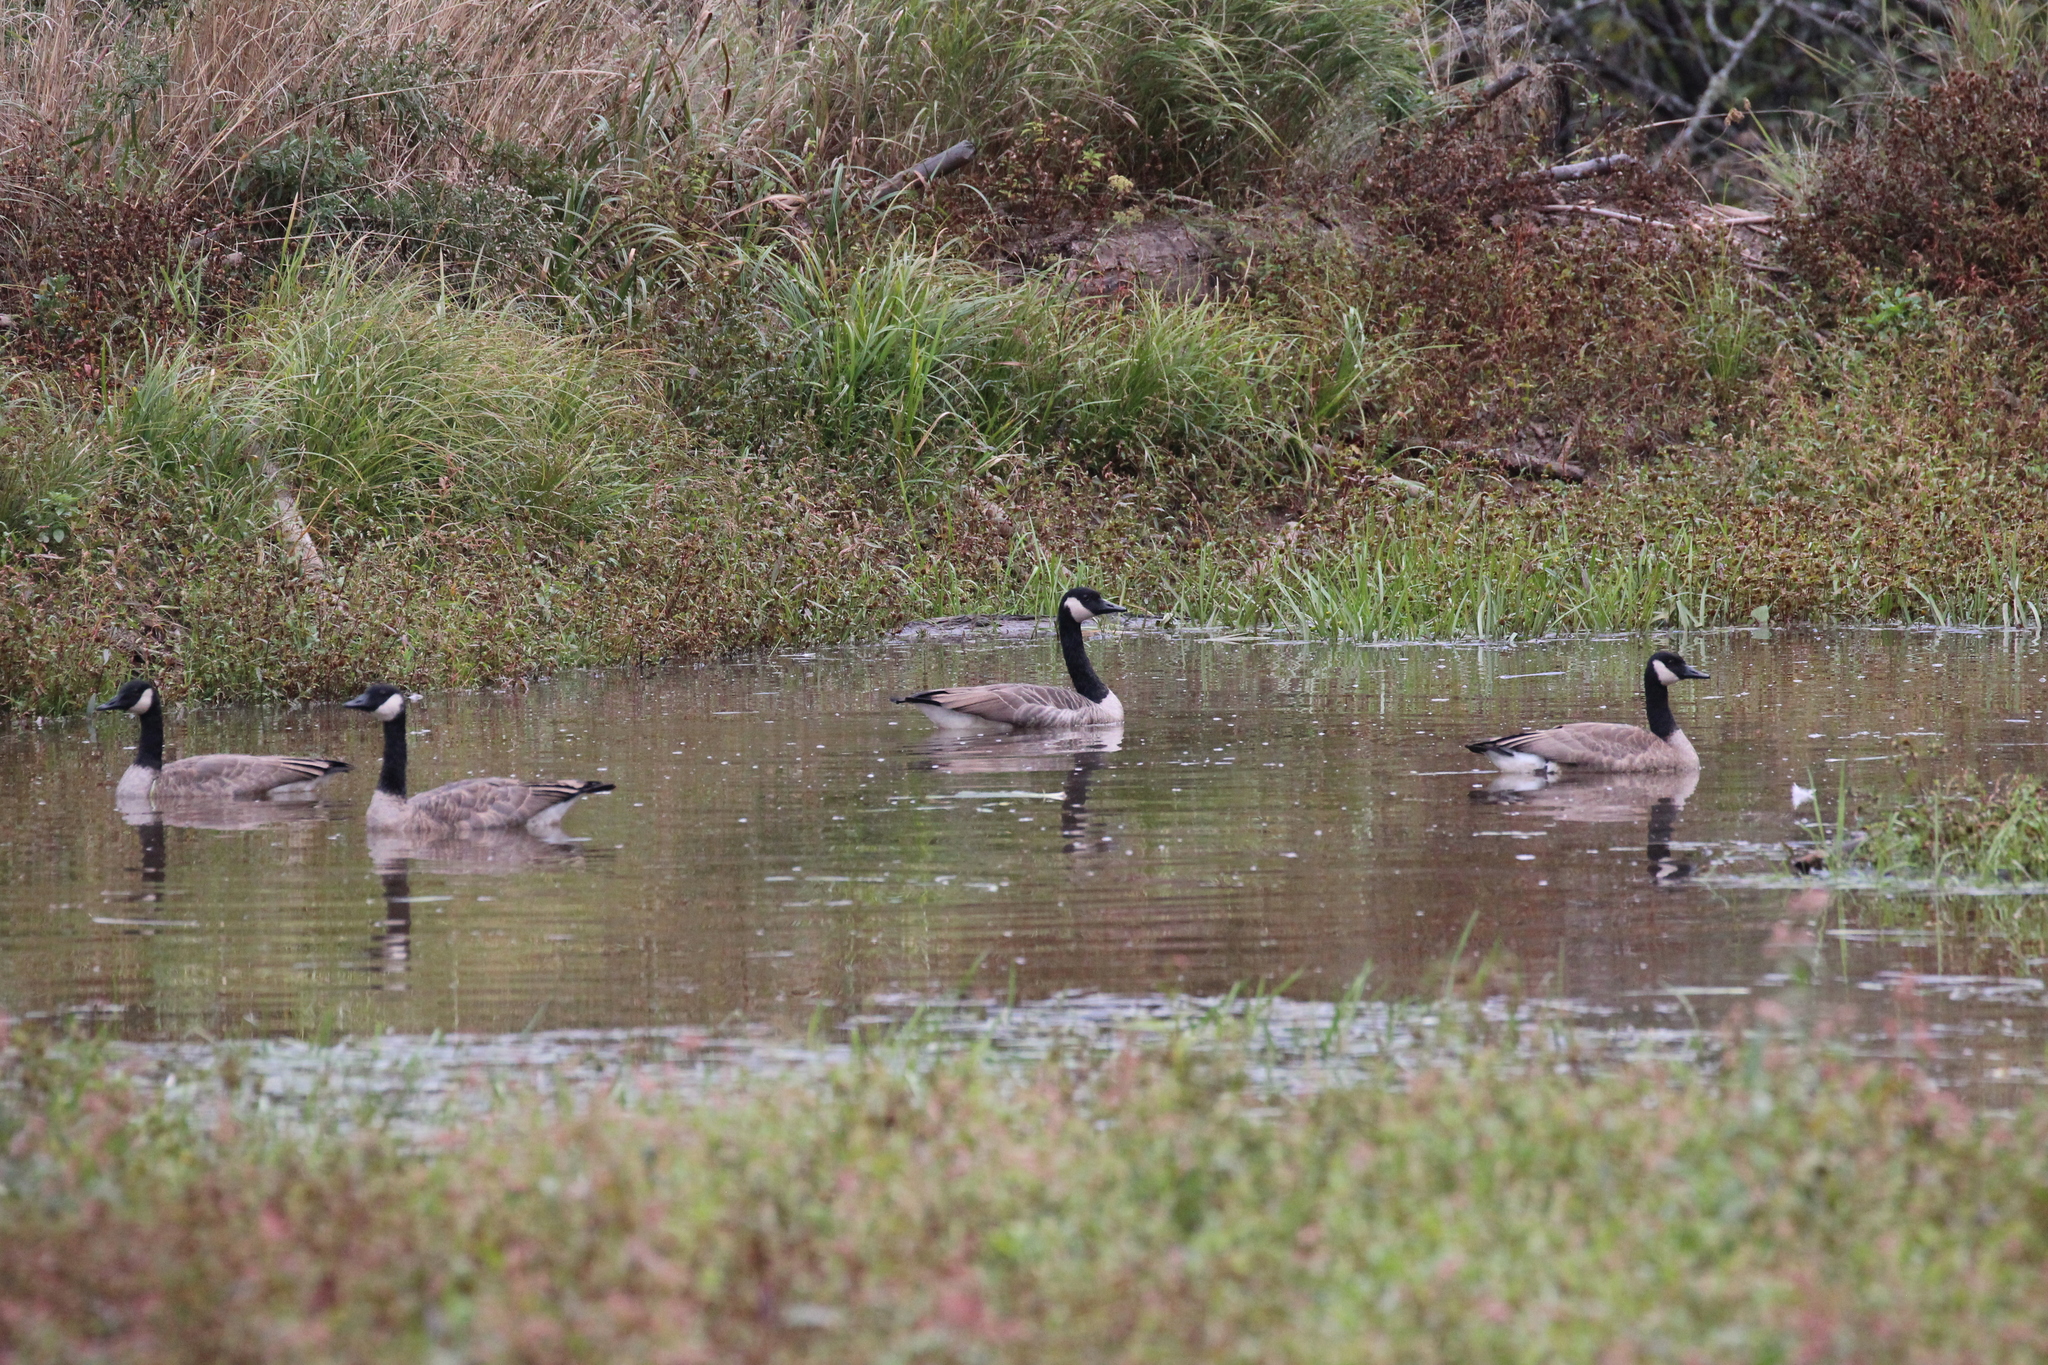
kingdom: Animalia
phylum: Chordata
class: Aves
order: Anseriformes
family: Anatidae
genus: Branta
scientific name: Branta canadensis
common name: Canada goose
